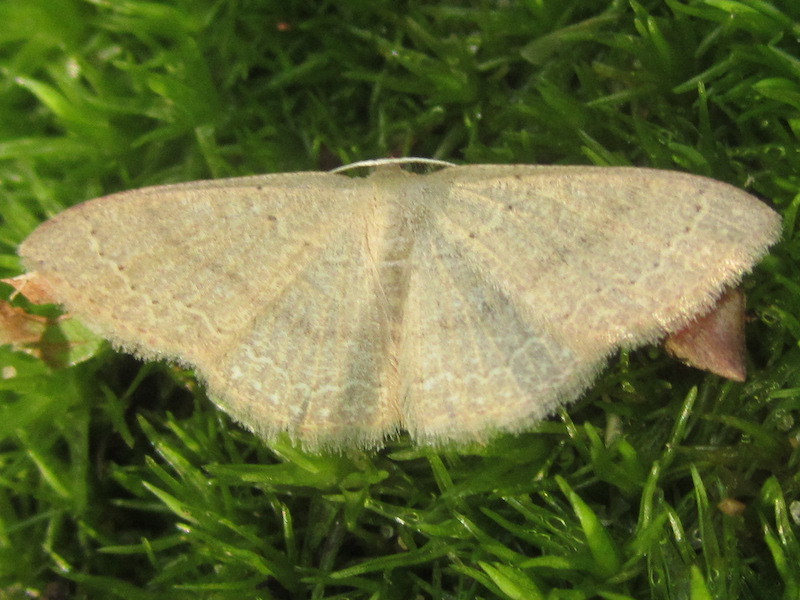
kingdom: Animalia
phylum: Arthropoda
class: Insecta
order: Lepidoptera
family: Geometridae
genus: Pleuroprucha
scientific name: Pleuroprucha insulsaria
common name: Common tan wave
